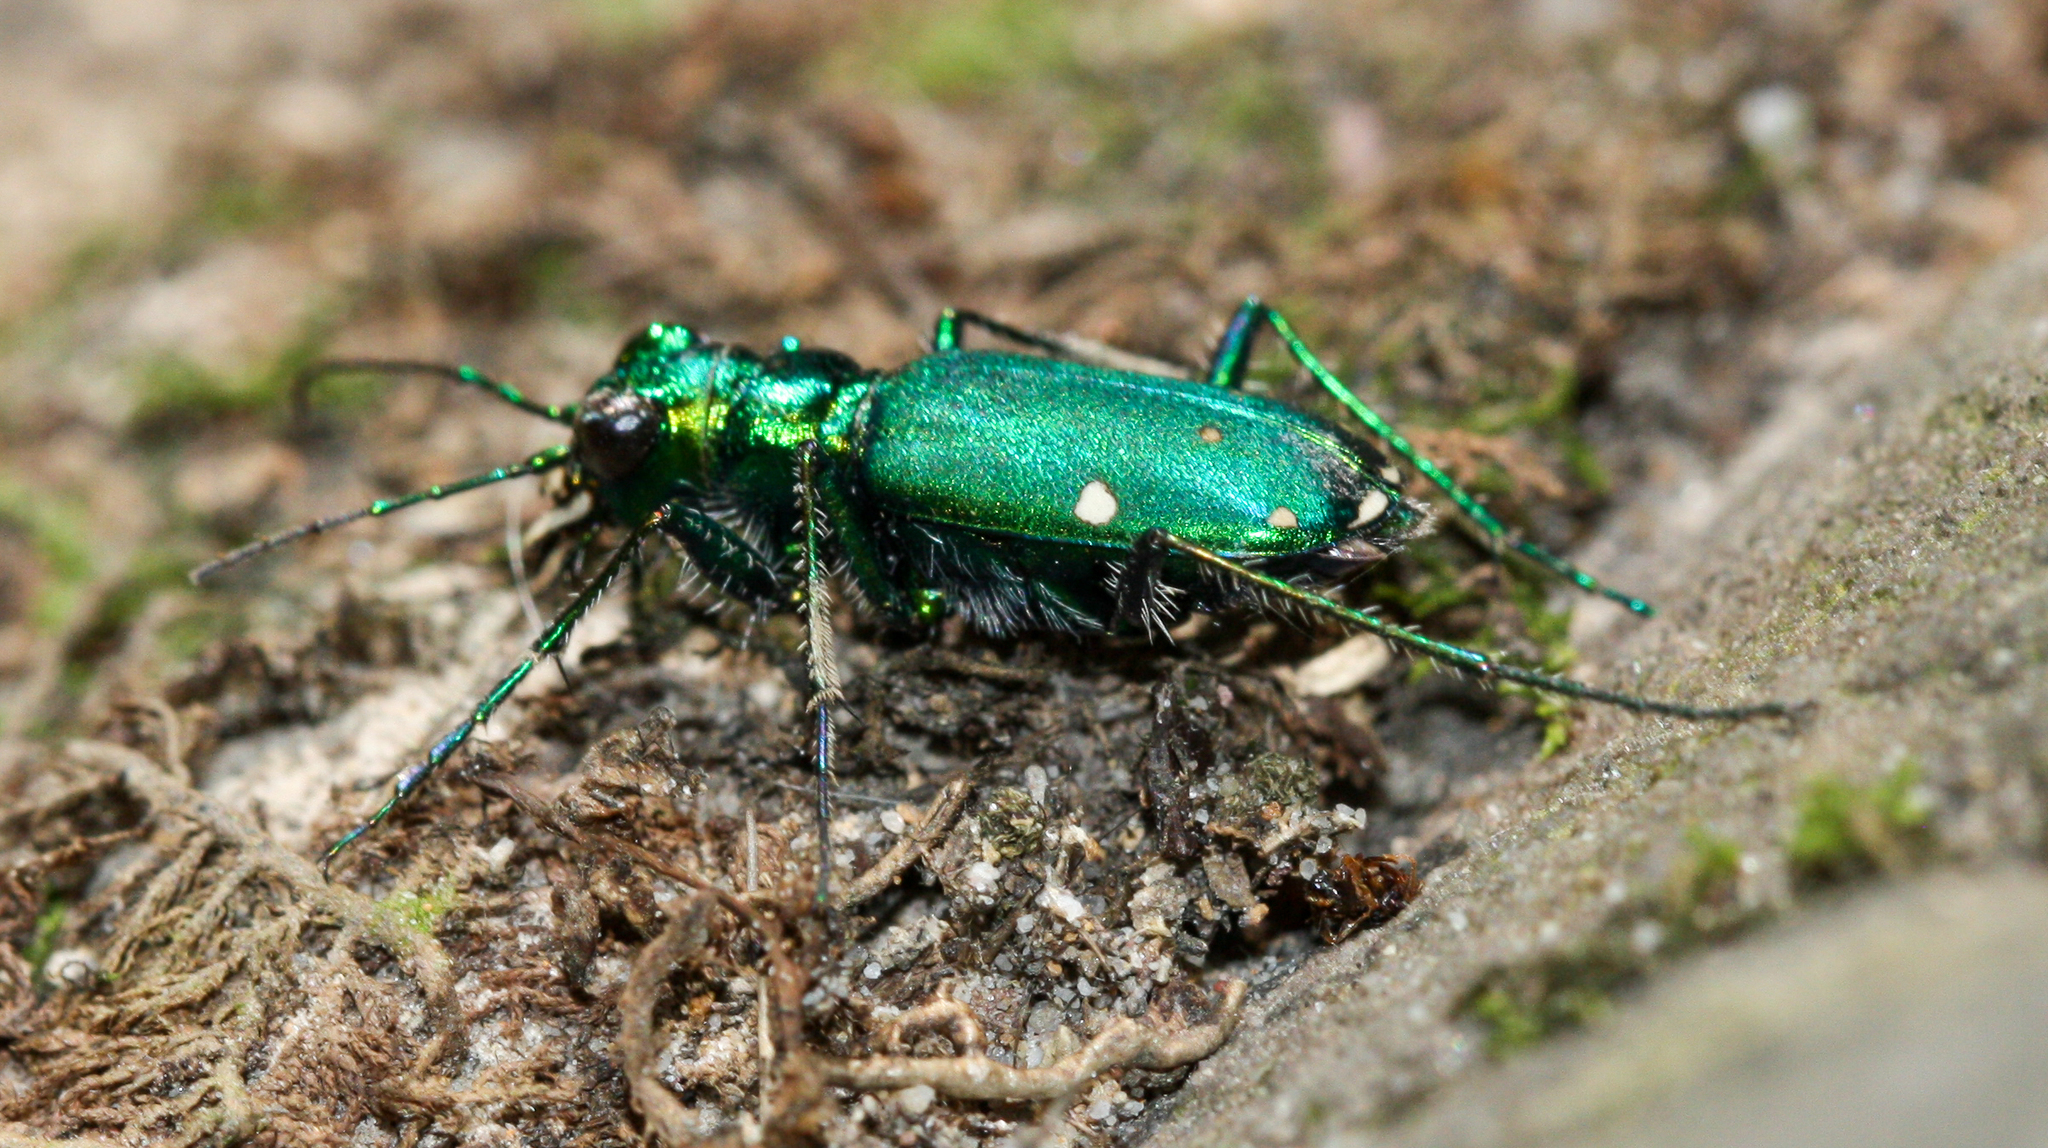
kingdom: Animalia
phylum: Arthropoda
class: Insecta
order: Coleoptera
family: Carabidae
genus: Cicindela
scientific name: Cicindela sexguttata
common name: Six-spotted tiger beetle
